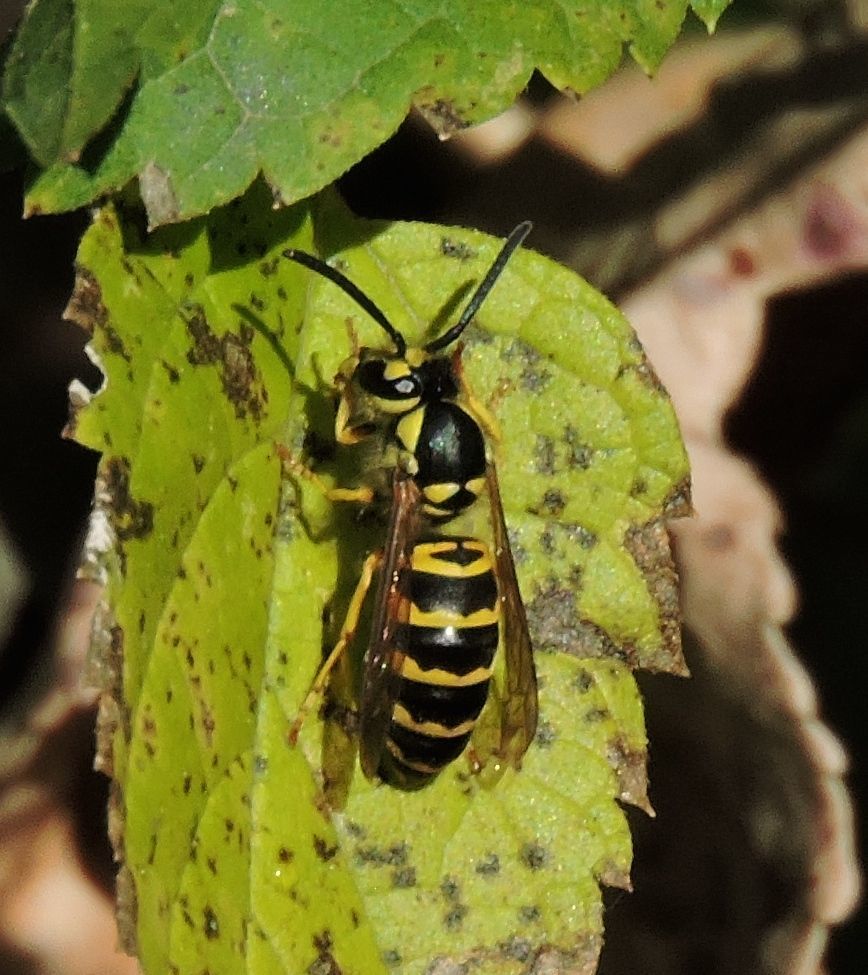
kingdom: Animalia
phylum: Arthropoda
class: Insecta
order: Hymenoptera
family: Vespidae
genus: Vespula
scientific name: Vespula maculifrons
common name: Eastern yellowjacket
